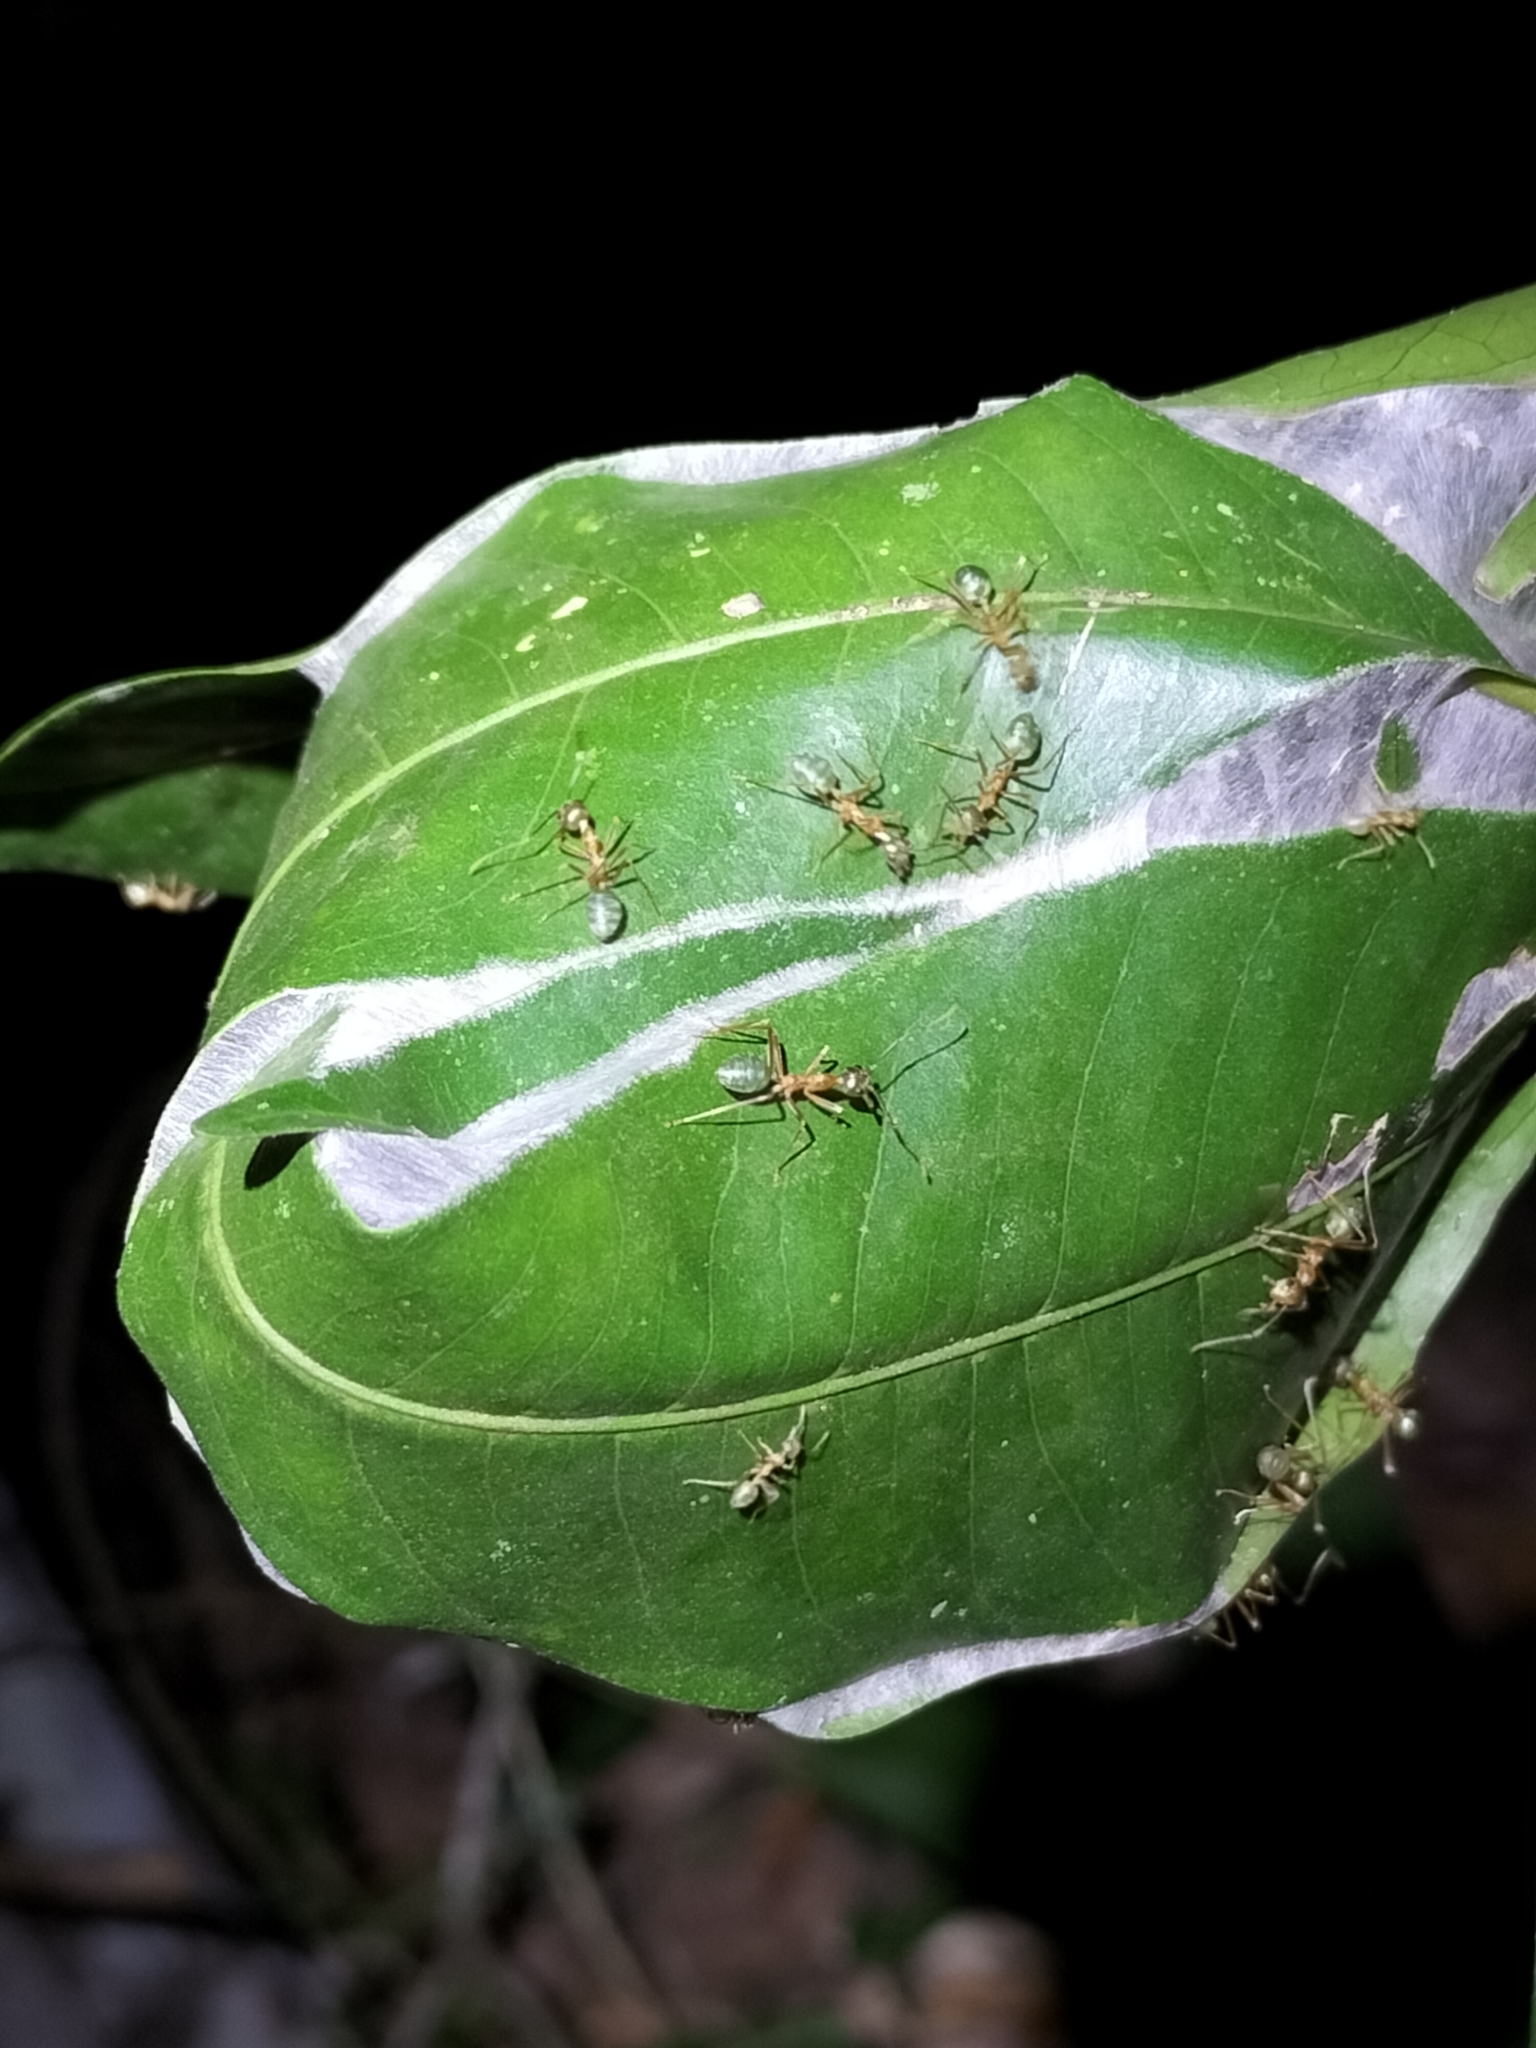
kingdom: Animalia
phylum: Arthropoda
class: Insecta
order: Hymenoptera
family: Formicidae
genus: Oecophylla
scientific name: Oecophylla smaragdina
